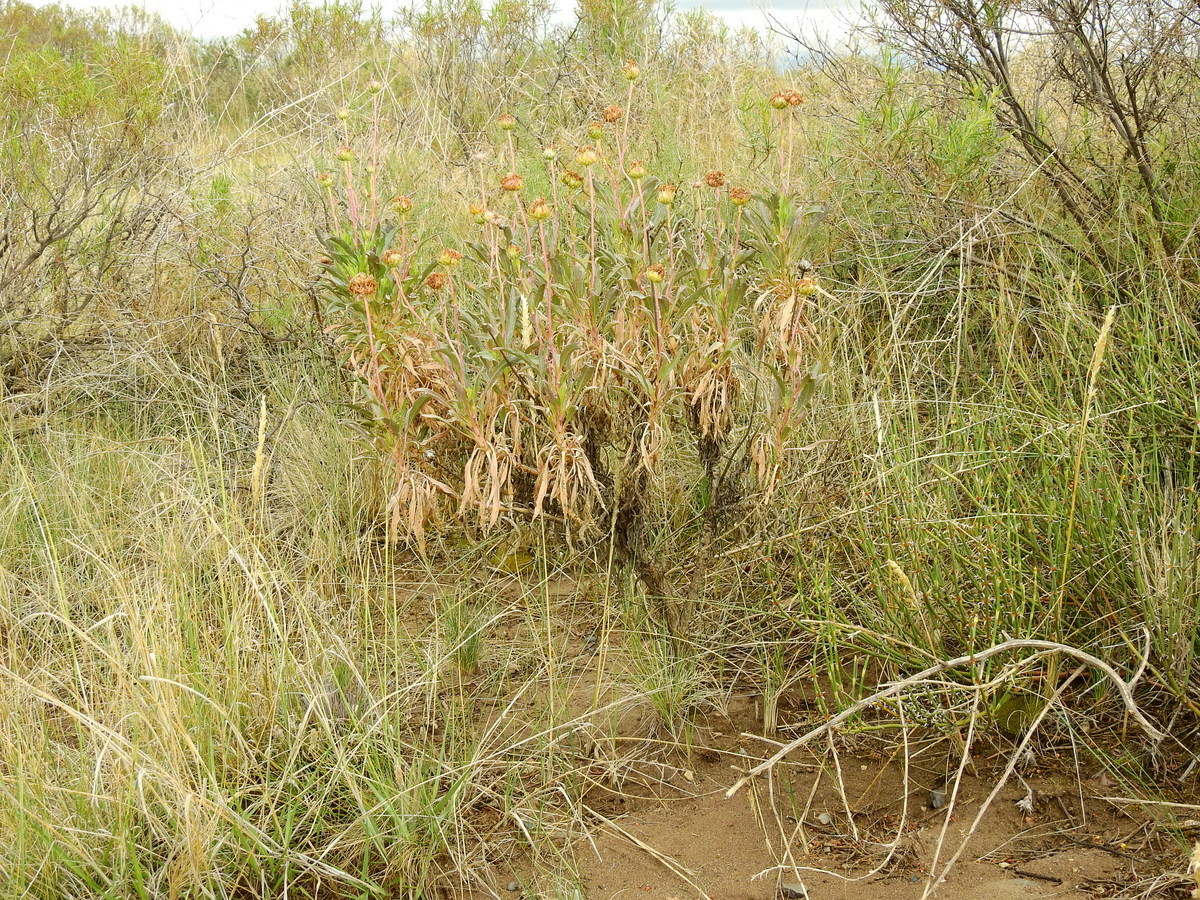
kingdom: Plantae
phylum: Tracheophyta
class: Magnoliopsida
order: Asterales
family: Asteraceae
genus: Grindelia
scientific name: Grindelia chiloensis
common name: Shrubby gumweed
